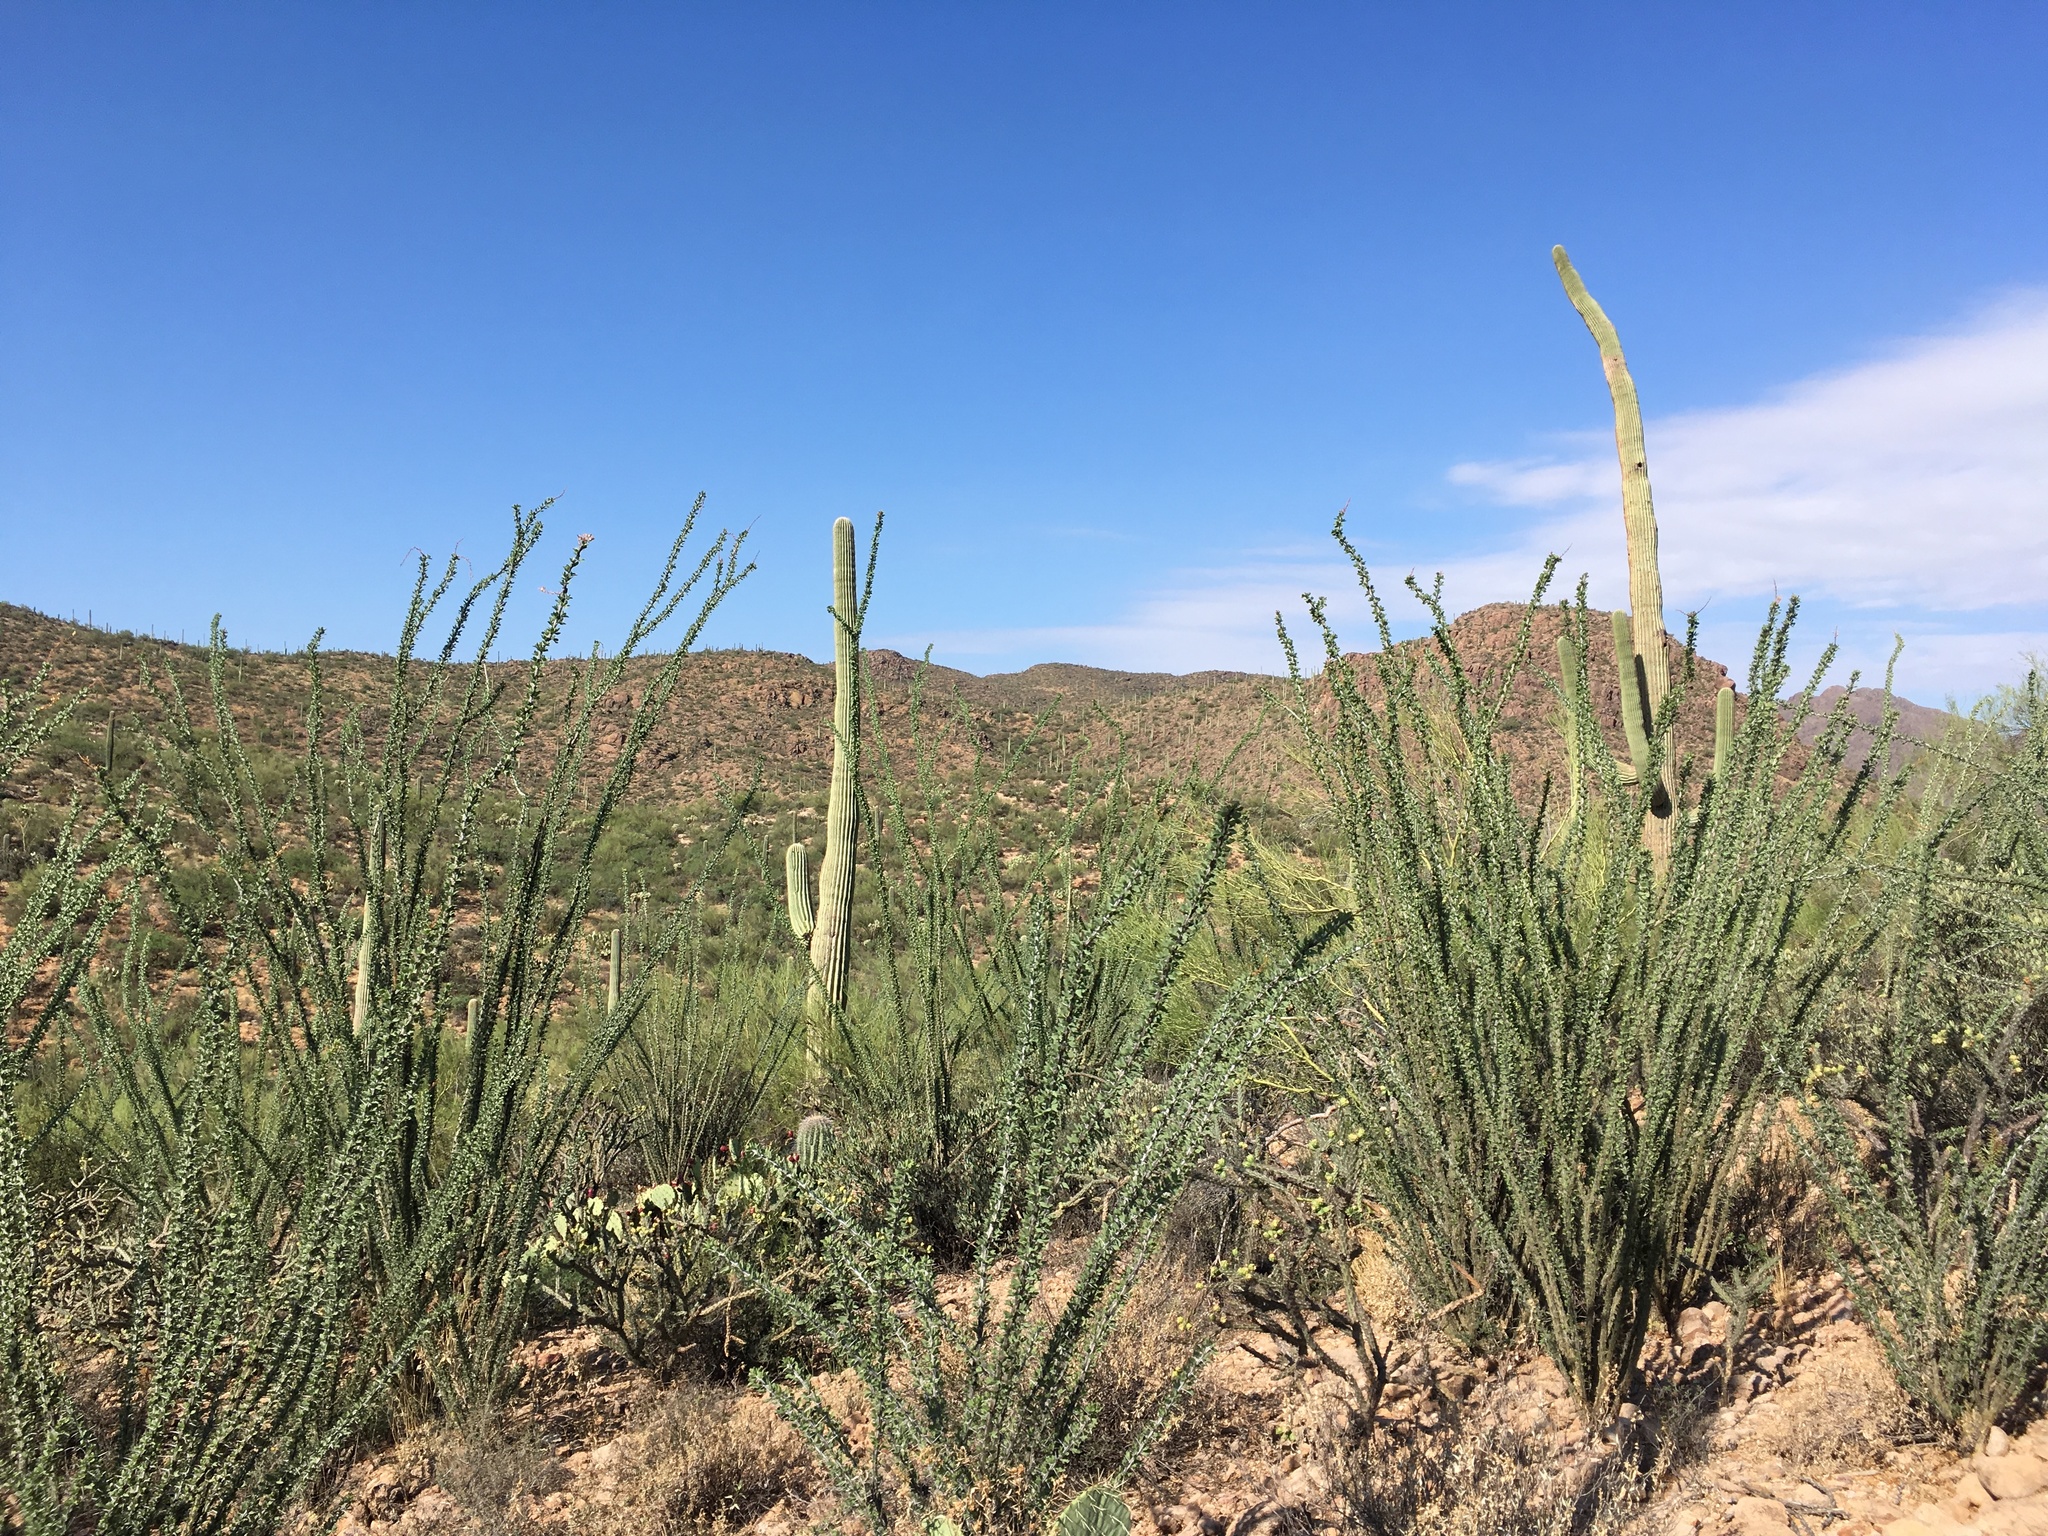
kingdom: Plantae
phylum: Tracheophyta
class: Magnoliopsida
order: Ericales
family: Fouquieriaceae
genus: Fouquieria
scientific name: Fouquieria splendens
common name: Vine-cactus
